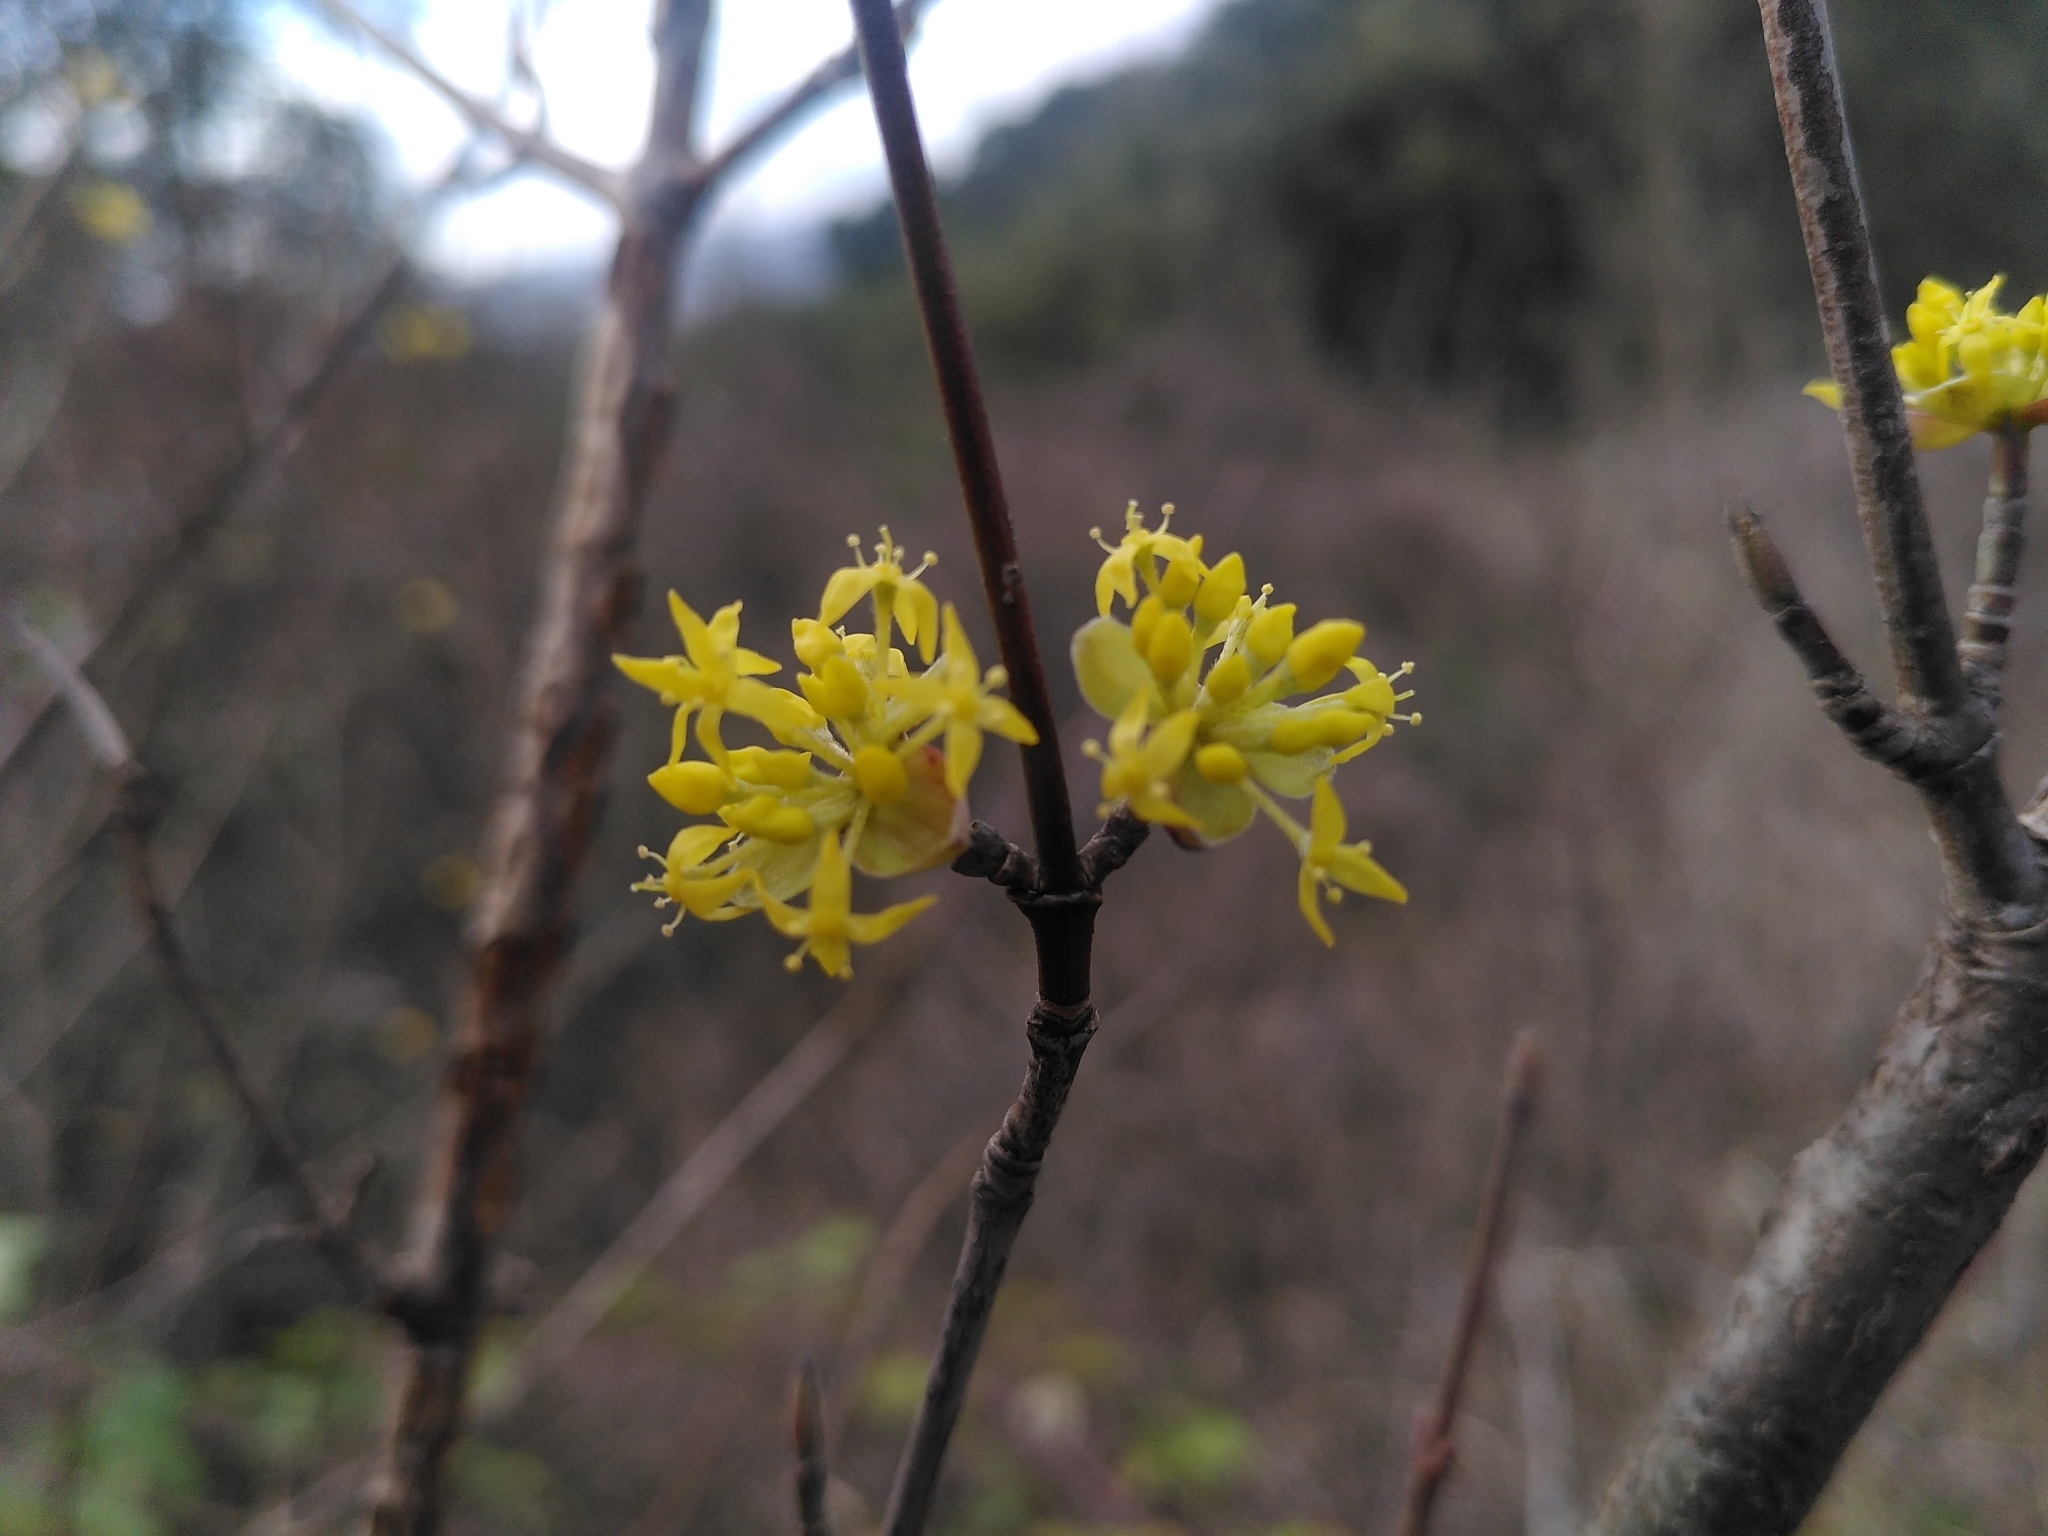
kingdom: Plantae
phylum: Tracheophyta
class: Magnoliopsida
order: Cornales
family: Cornaceae
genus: Cornus
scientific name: Cornus mas
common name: Cornelian-cherry
